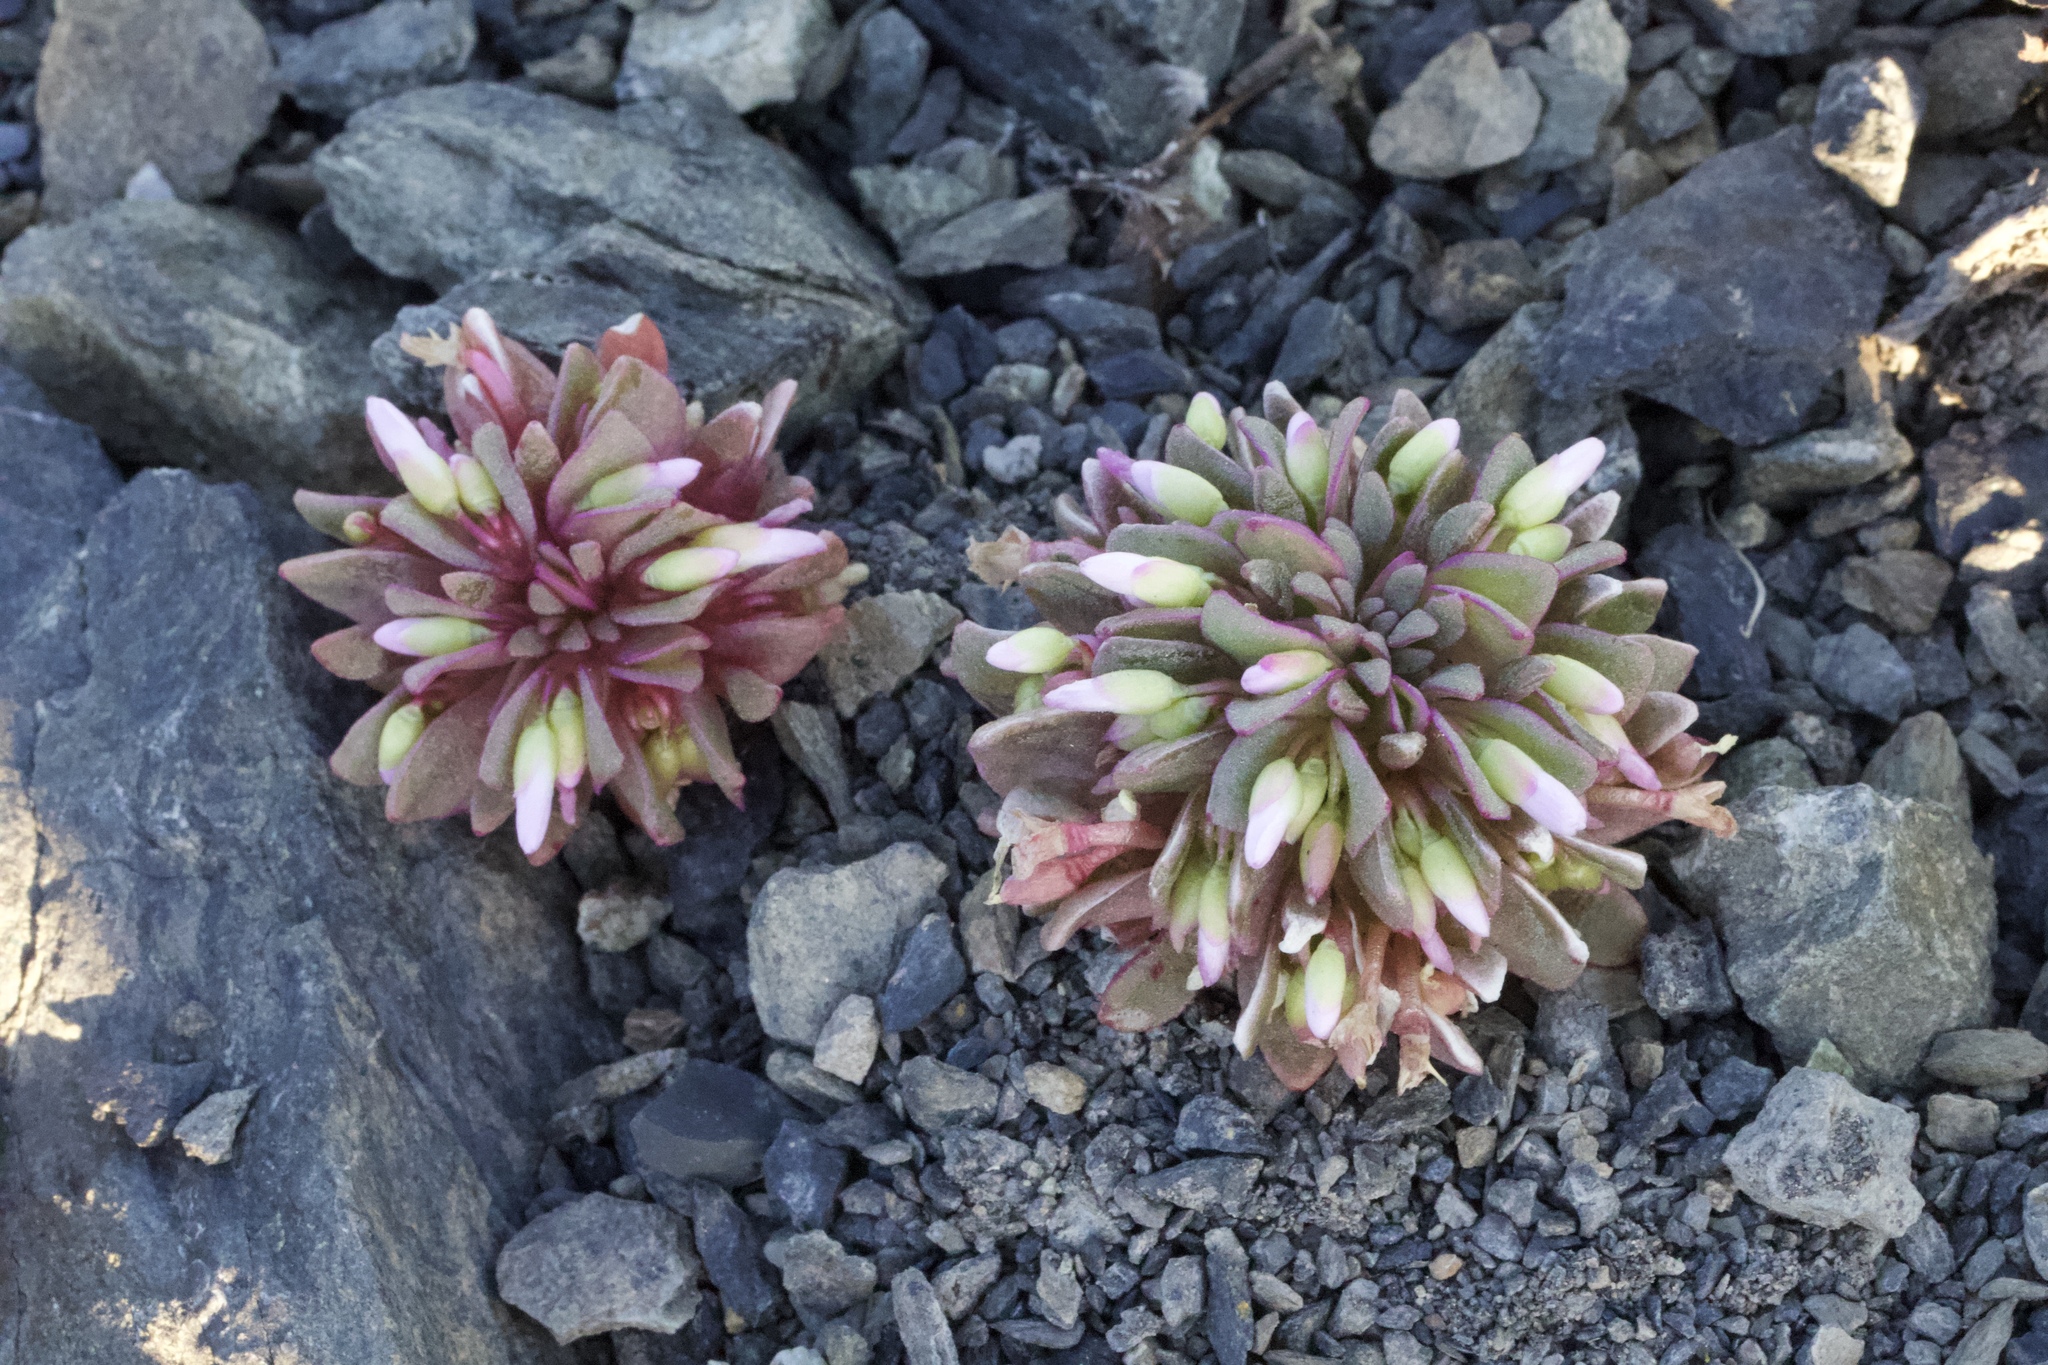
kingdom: Plantae
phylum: Tracheophyta
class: Magnoliopsida
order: Caryophyllales
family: Montiaceae
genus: Claytonia
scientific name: Claytonia saxosa
